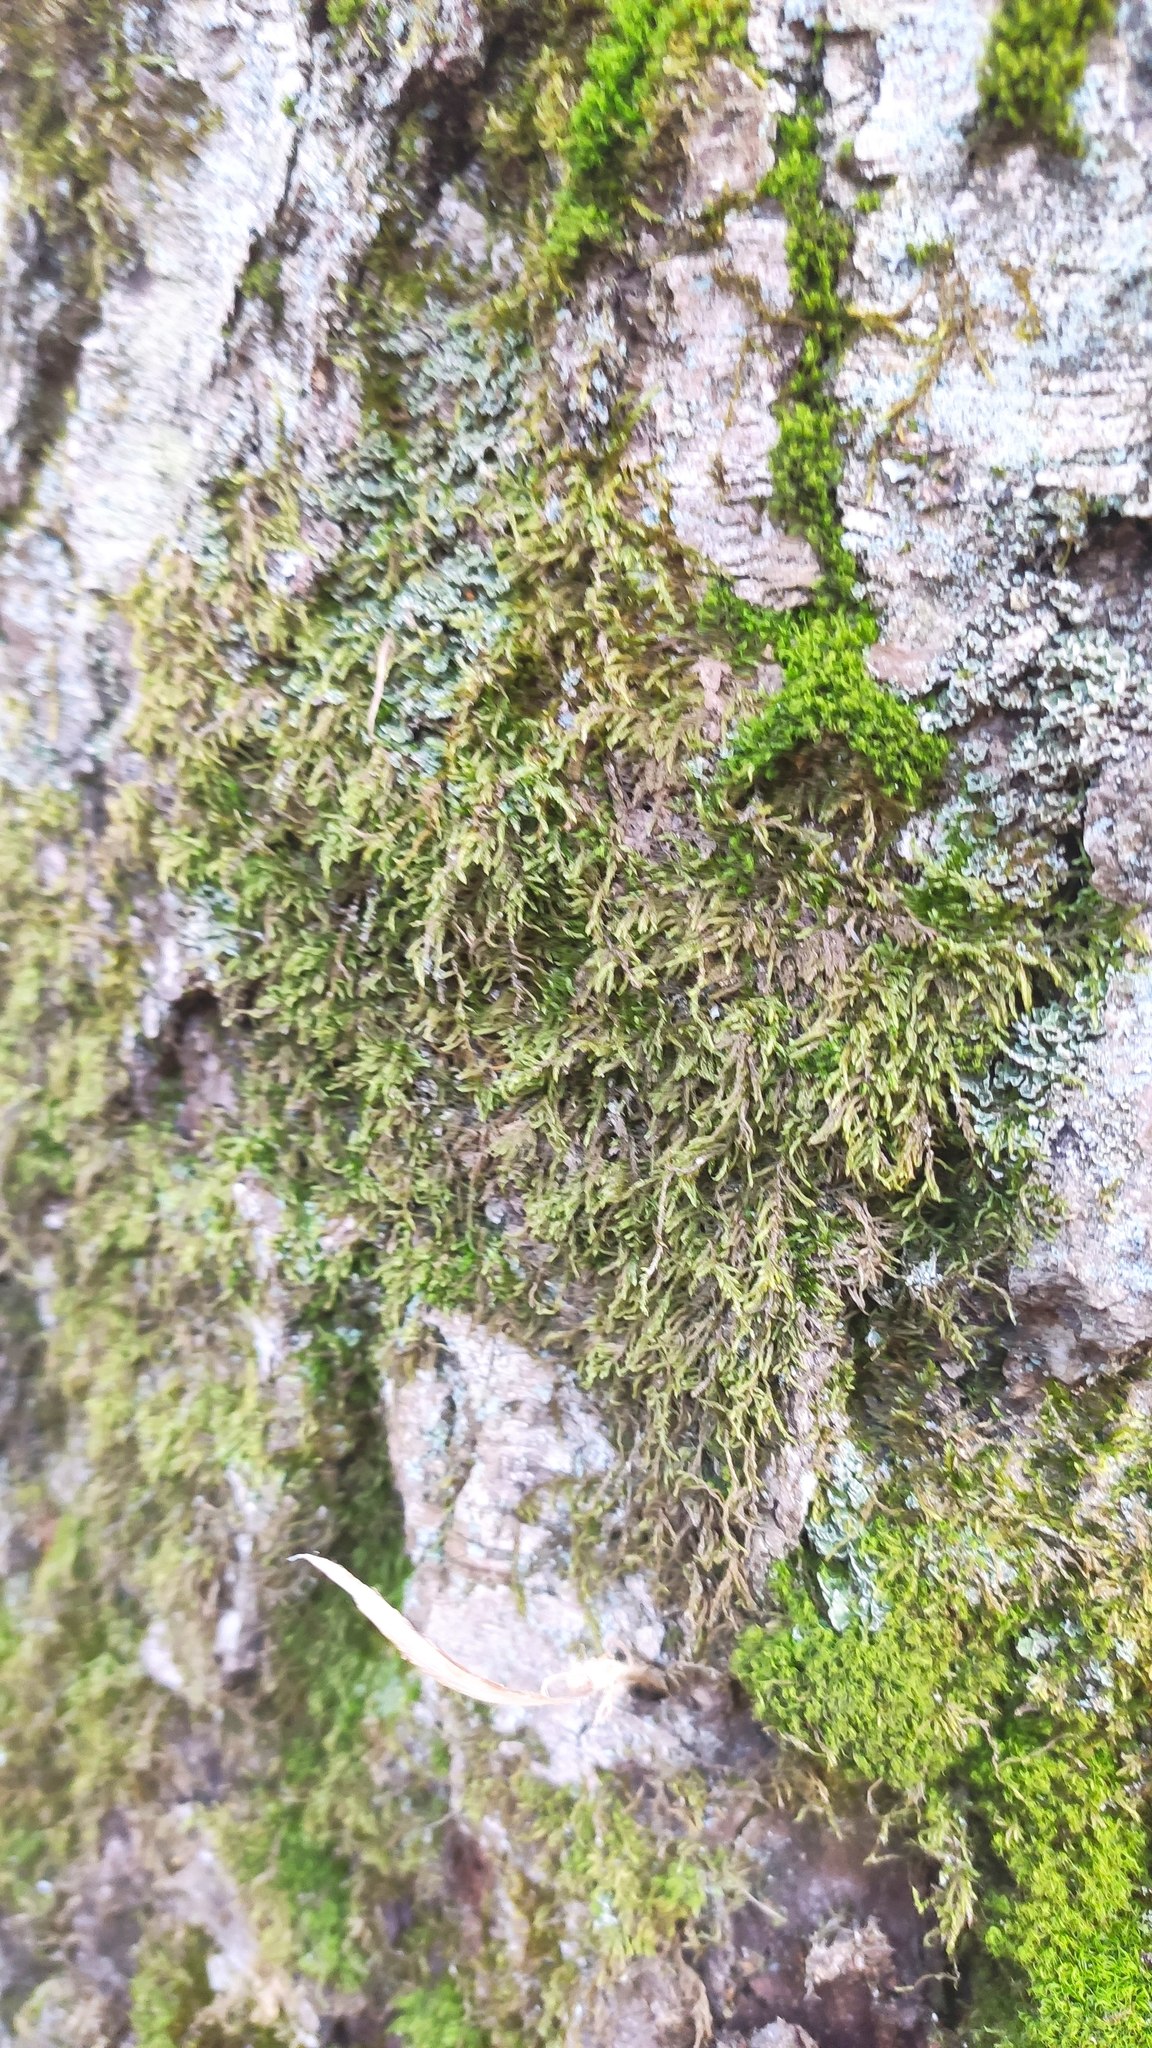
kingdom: Plantae
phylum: Bryophyta
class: Bryopsida
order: Hypnales
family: Hypnaceae
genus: Hypnum
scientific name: Hypnum cupressiforme
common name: Cypress-leaved plait-moss
